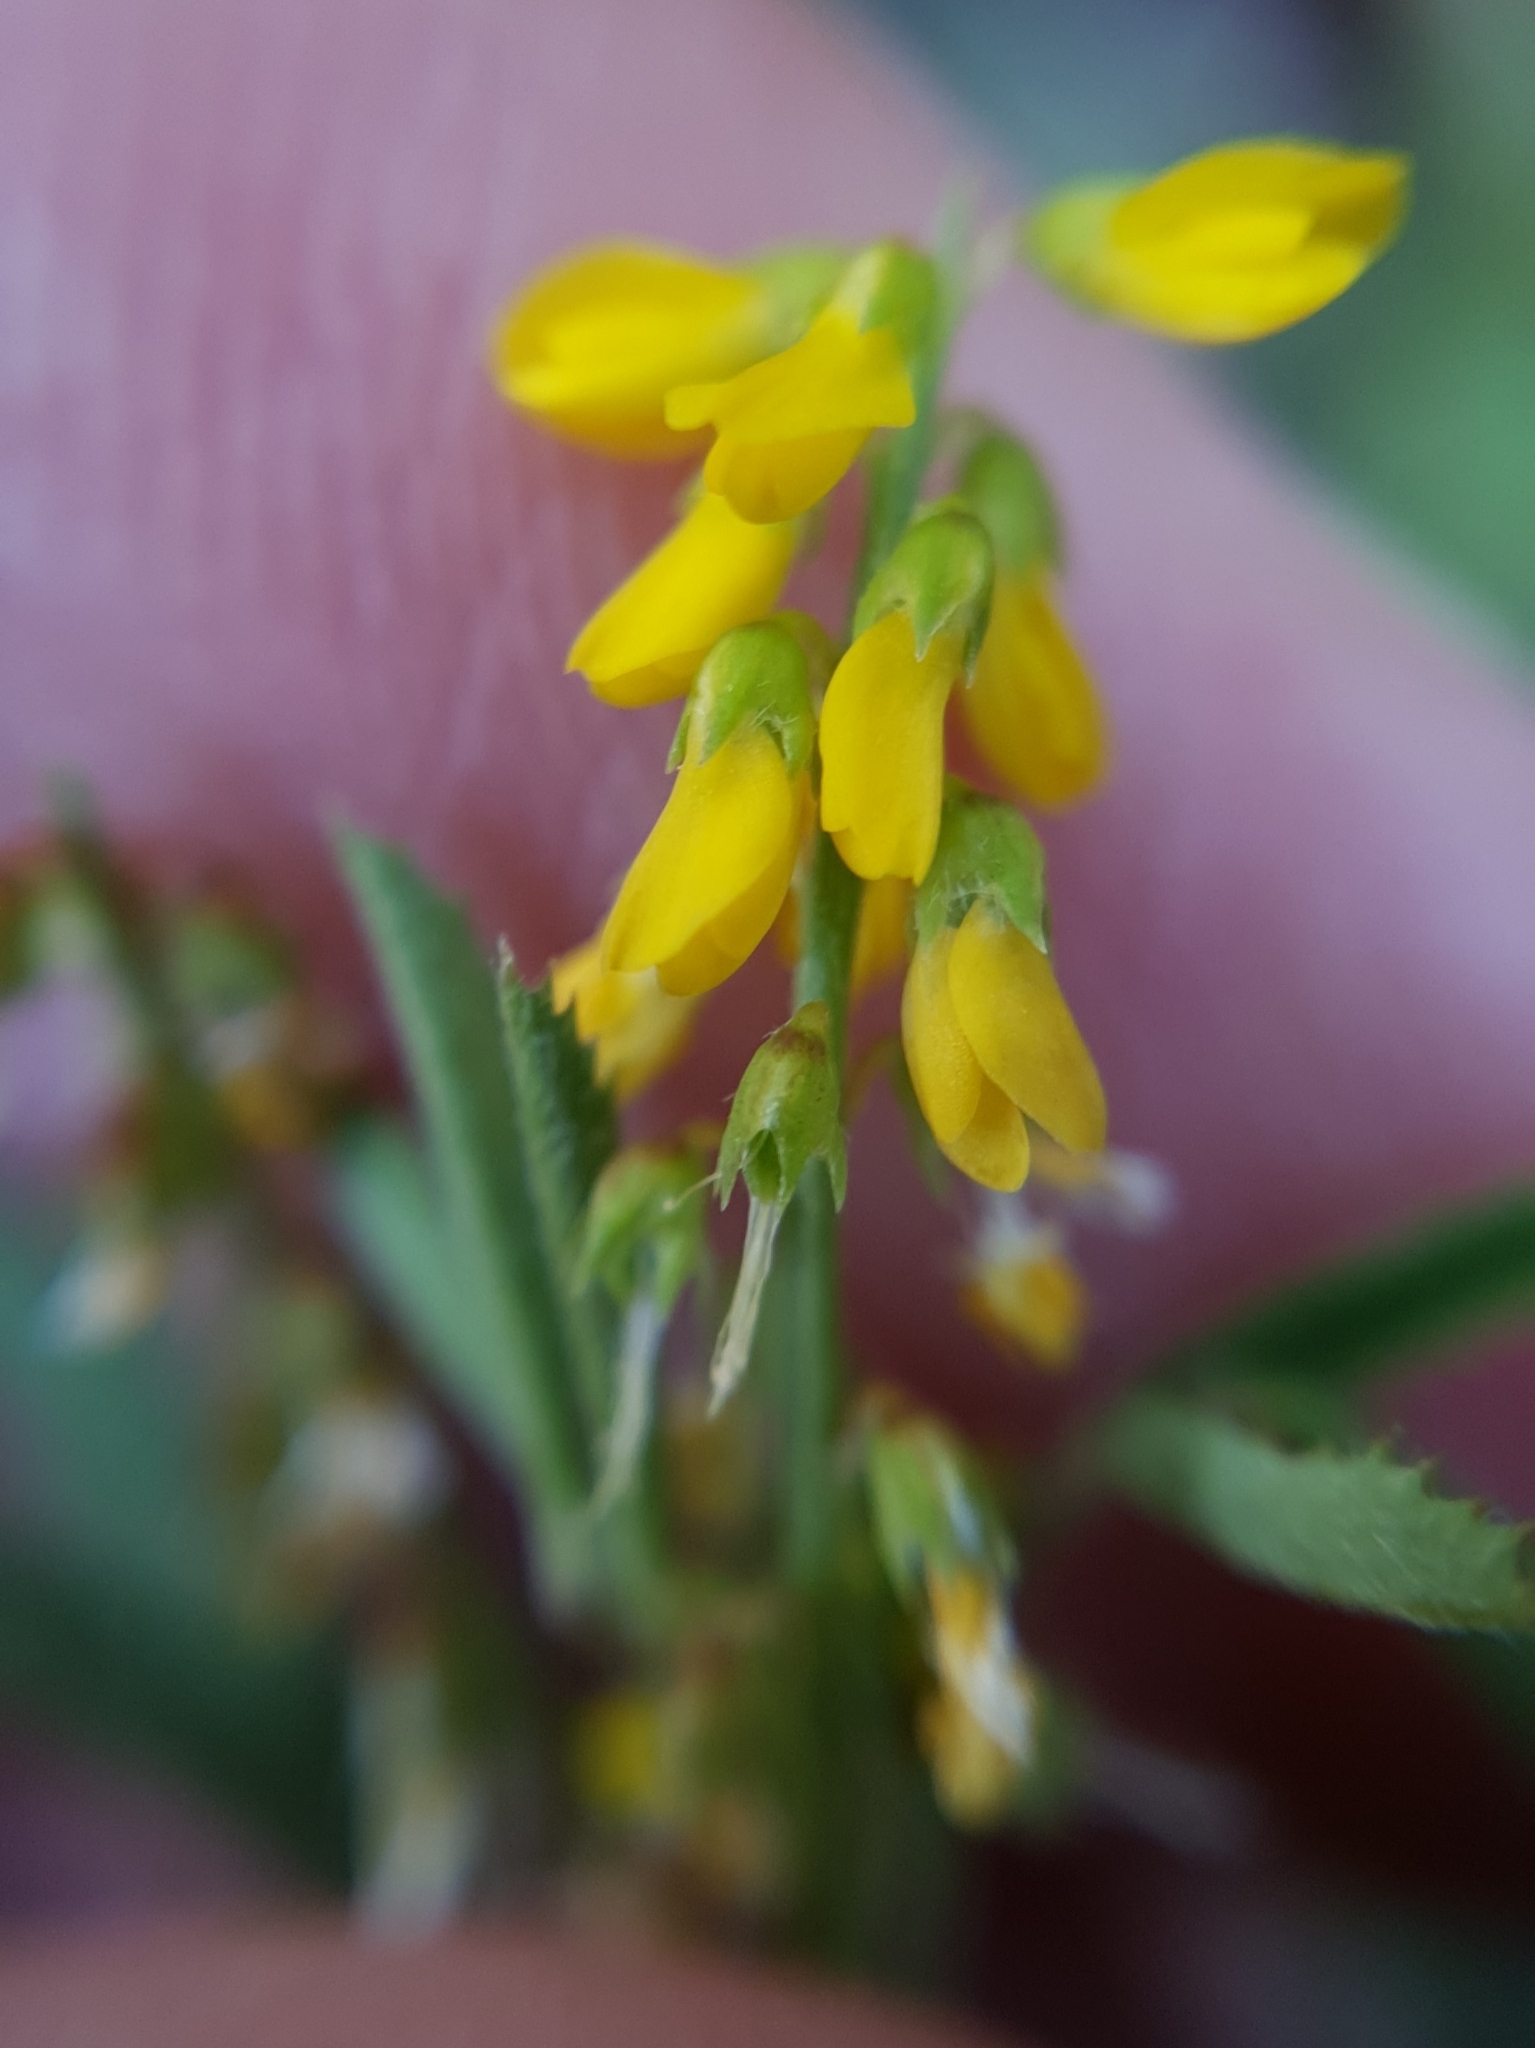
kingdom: Plantae
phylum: Tracheophyta
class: Magnoliopsida
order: Fabales
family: Fabaceae
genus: Melilotus
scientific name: Melilotus indicus
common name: Small melilot
